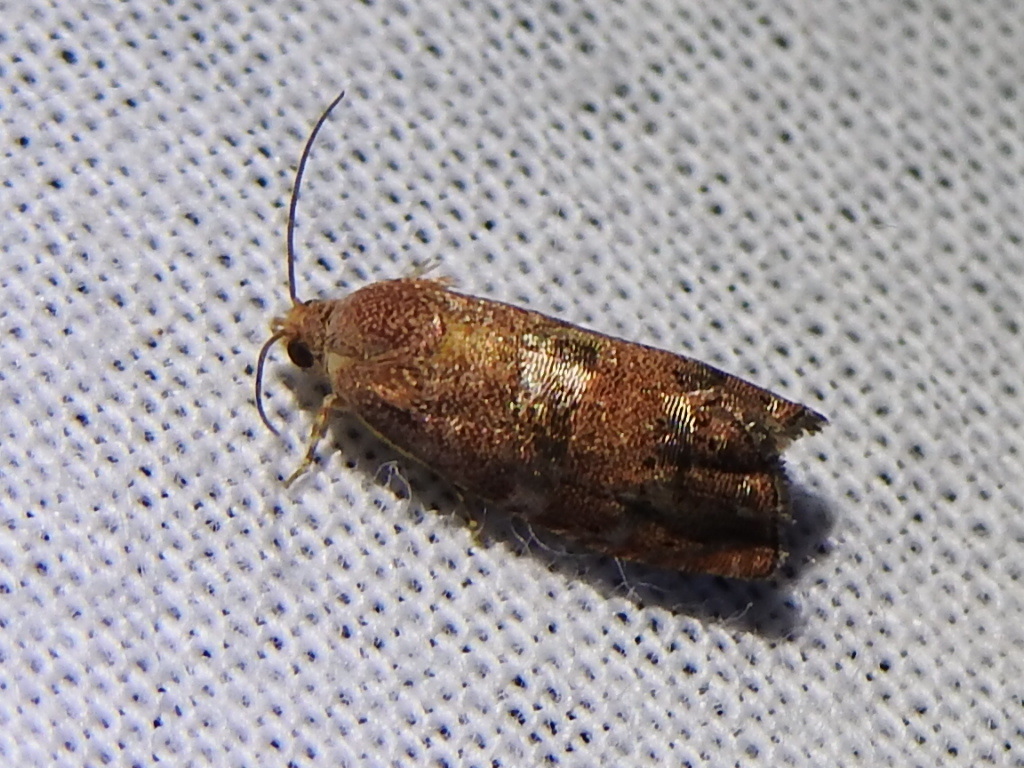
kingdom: Animalia
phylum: Arthropoda
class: Insecta
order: Lepidoptera
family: Tortricidae
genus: Cydia
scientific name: Cydia latiferreana
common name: Filbertworm moth
